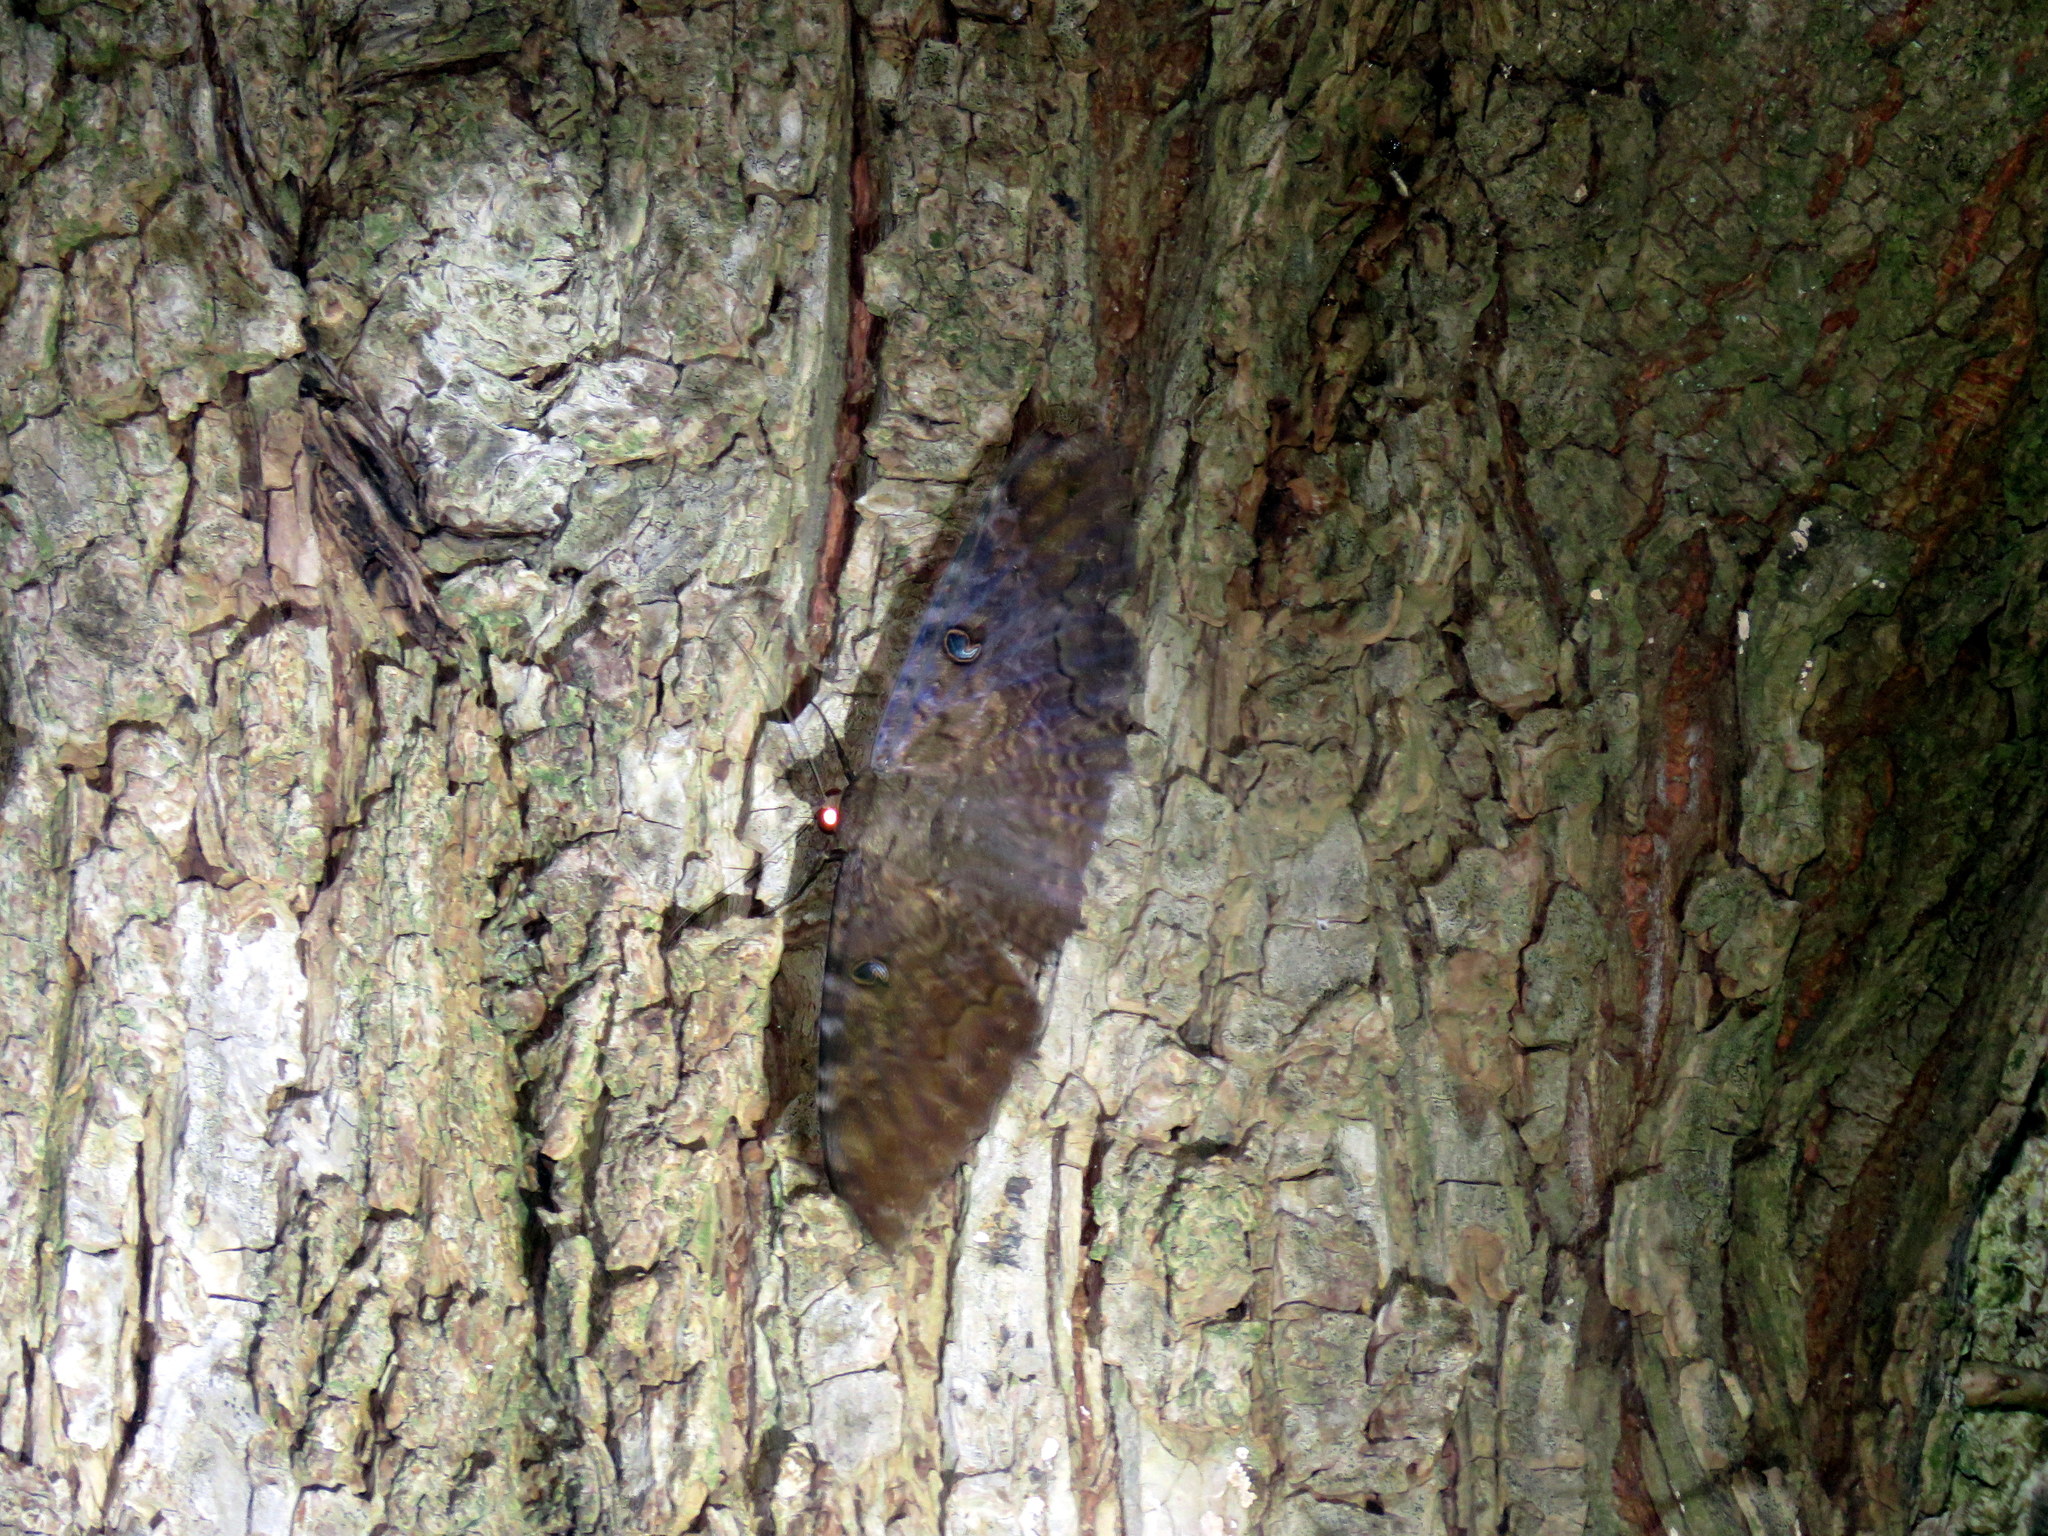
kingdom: Animalia
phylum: Arthropoda
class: Insecta
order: Lepidoptera
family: Erebidae
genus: Ascalapha
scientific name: Ascalapha odorata
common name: Black witch
